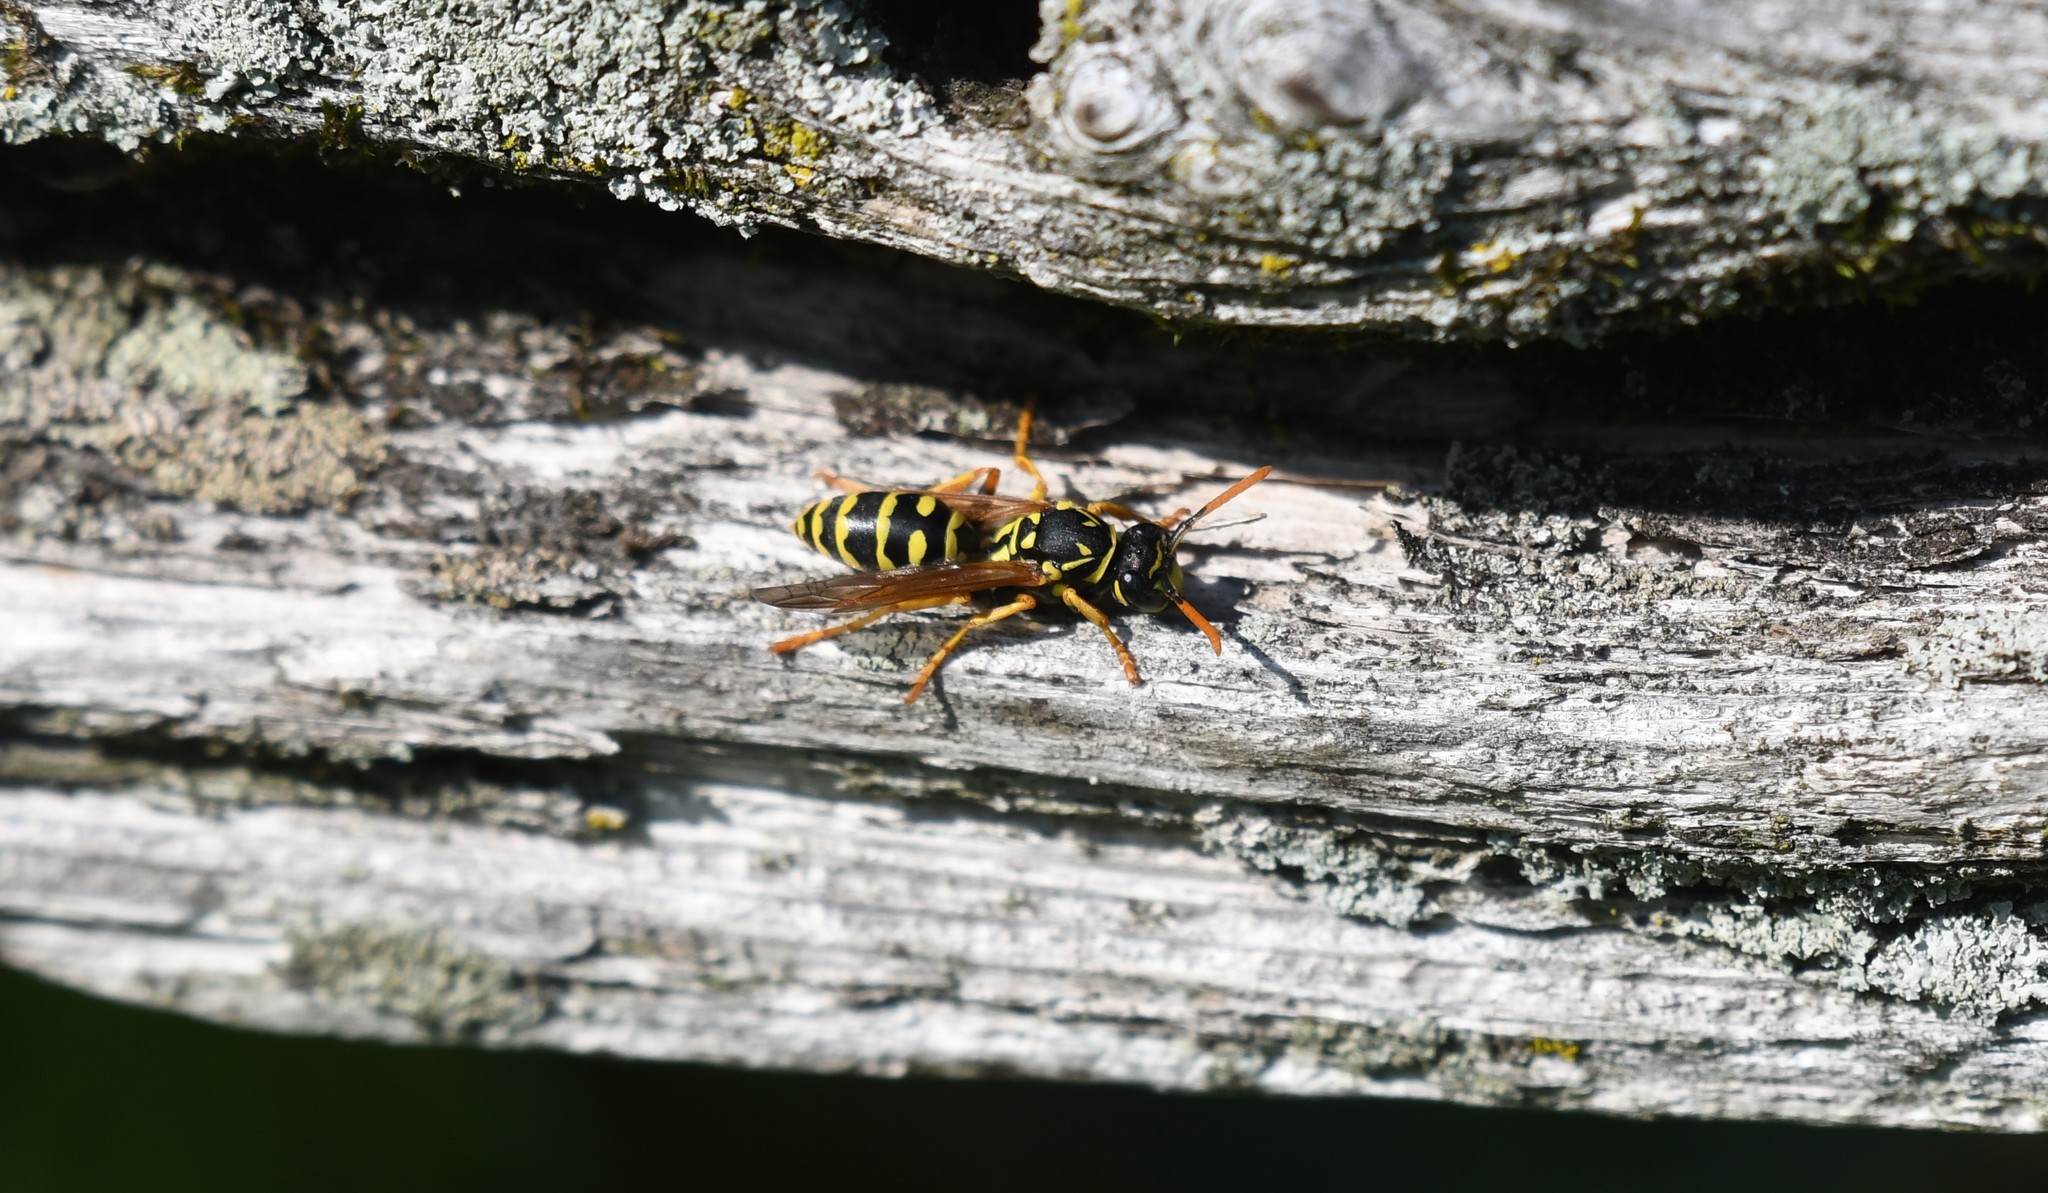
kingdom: Animalia
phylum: Arthropoda
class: Insecta
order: Hymenoptera
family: Eumenidae
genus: Polistes
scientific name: Polistes dominula
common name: Paper wasp
